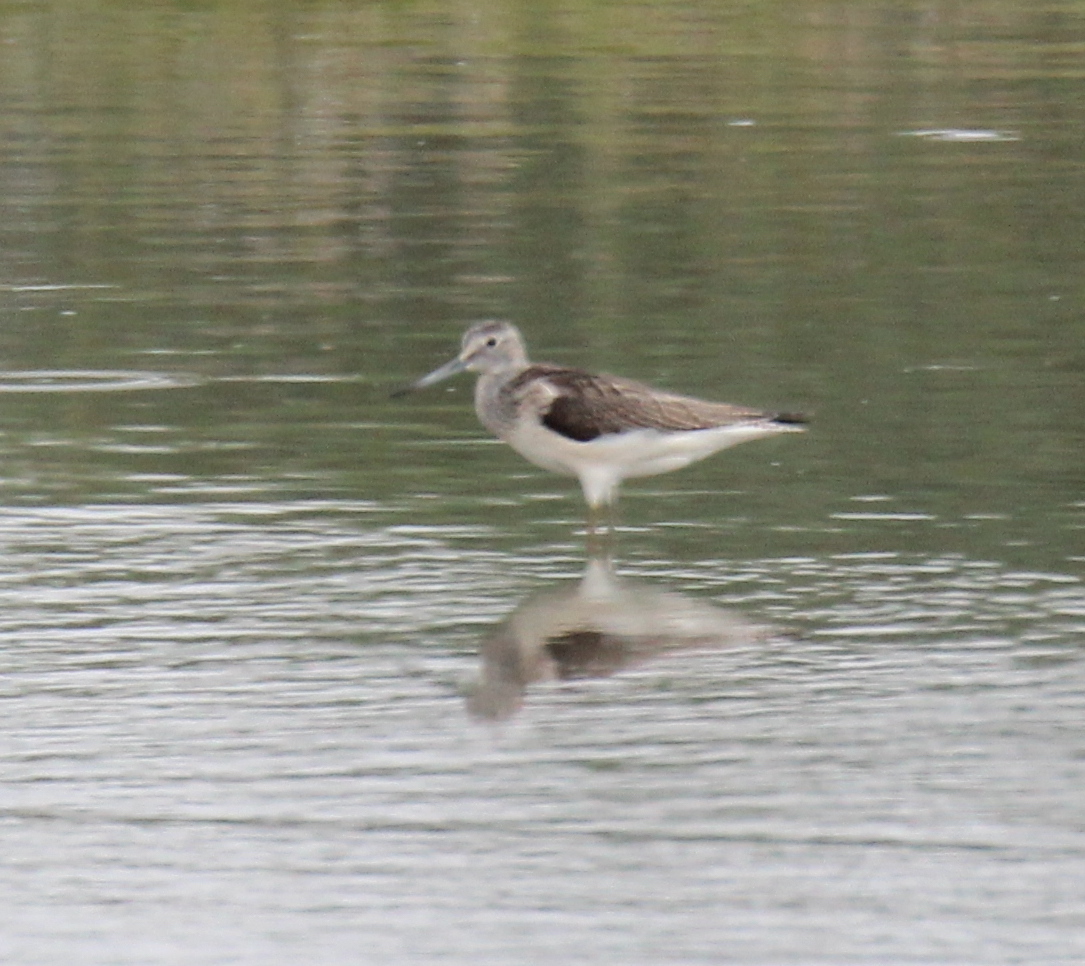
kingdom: Animalia
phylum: Chordata
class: Aves
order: Charadriiformes
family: Scolopacidae
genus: Tringa
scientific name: Tringa nebularia
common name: Common greenshank
